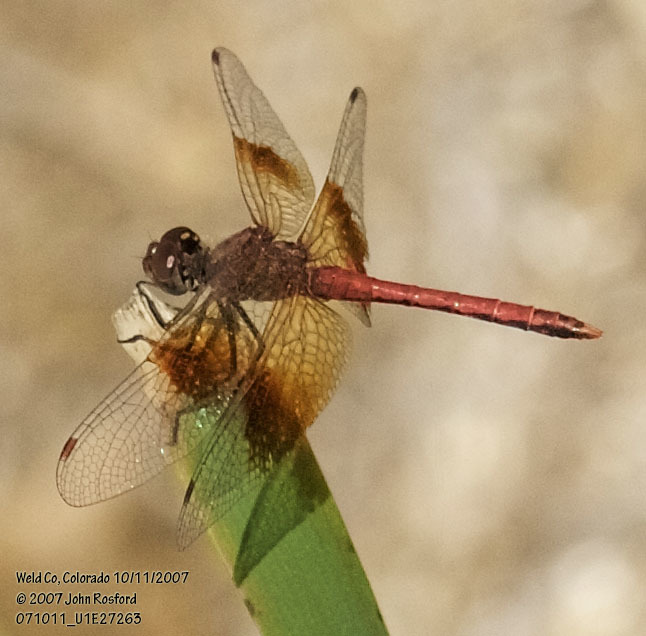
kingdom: Animalia
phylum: Arthropoda
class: Insecta
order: Odonata
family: Libellulidae
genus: Sympetrum
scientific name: Sympetrum semicinctum
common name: Band-winged meadowhawk
